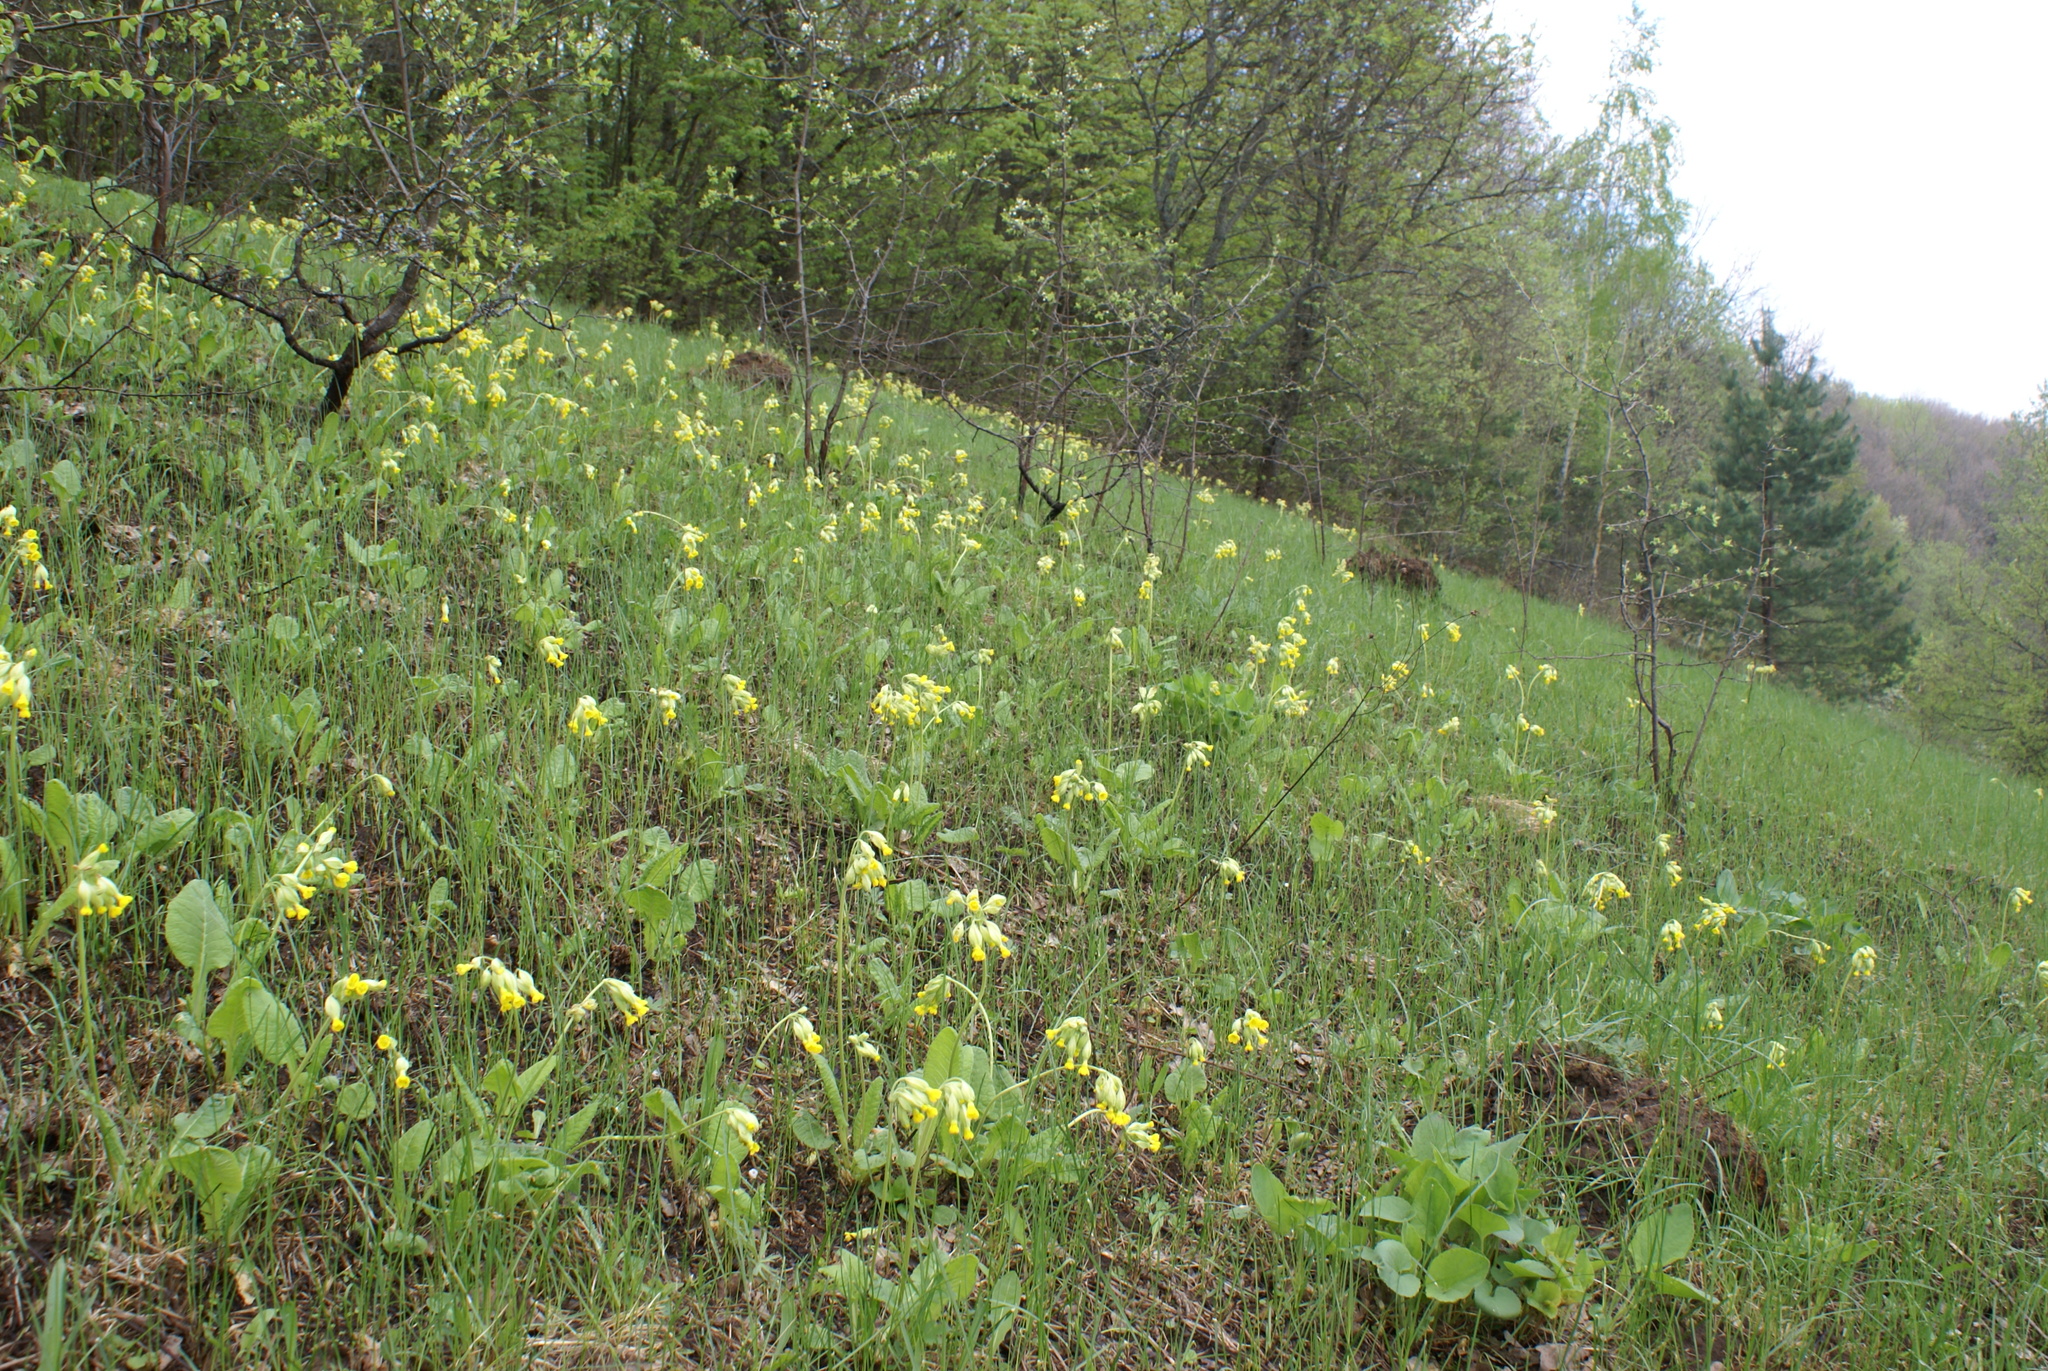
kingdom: Plantae
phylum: Tracheophyta
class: Magnoliopsida
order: Ericales
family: Primulaceae
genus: Primula
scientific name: Primula veris
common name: Cowslip
